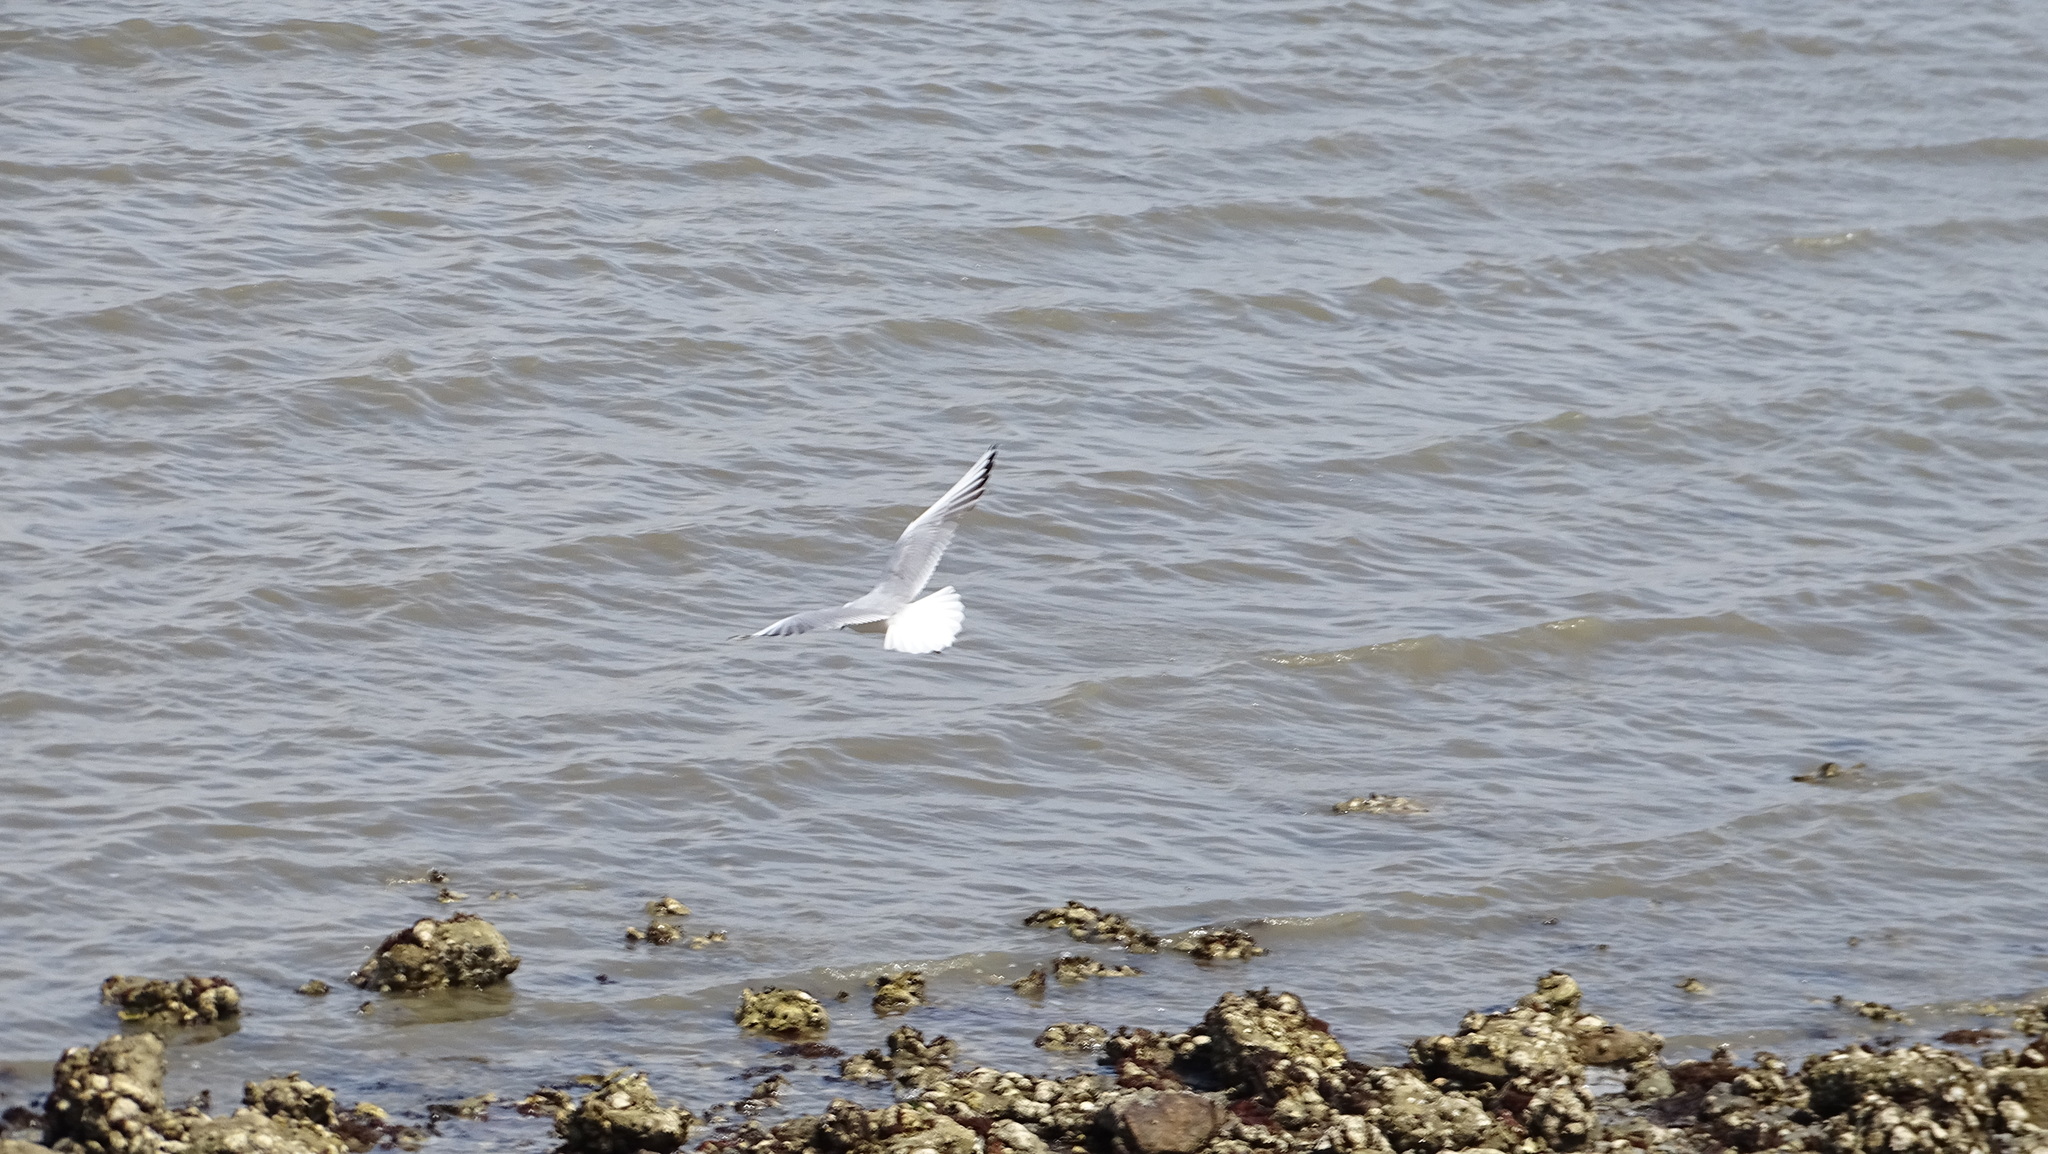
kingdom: Animalia
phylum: Chordata
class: Aves
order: Charadriiformes
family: Laridae
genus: Chroicocephalus
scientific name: Chroicocephalus ridibundus
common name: Black-headed gull
